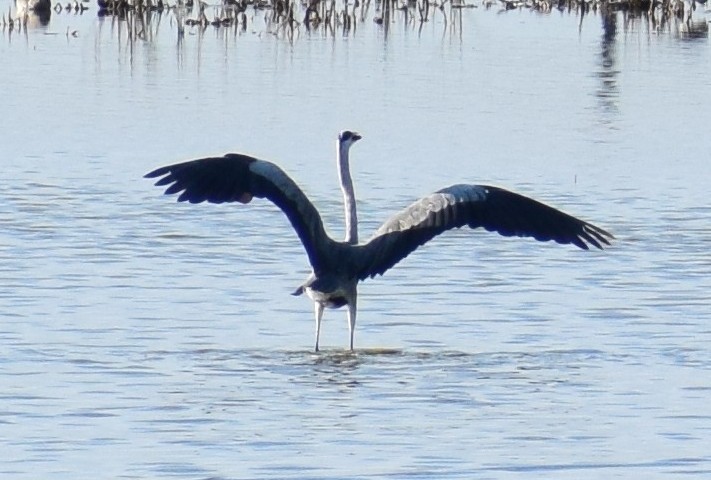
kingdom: Animalia
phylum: Chordata
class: Aves
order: Pelecaniformes
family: Ardeidae
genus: Ardea
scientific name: Ardea cinerea
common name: Grey heron
